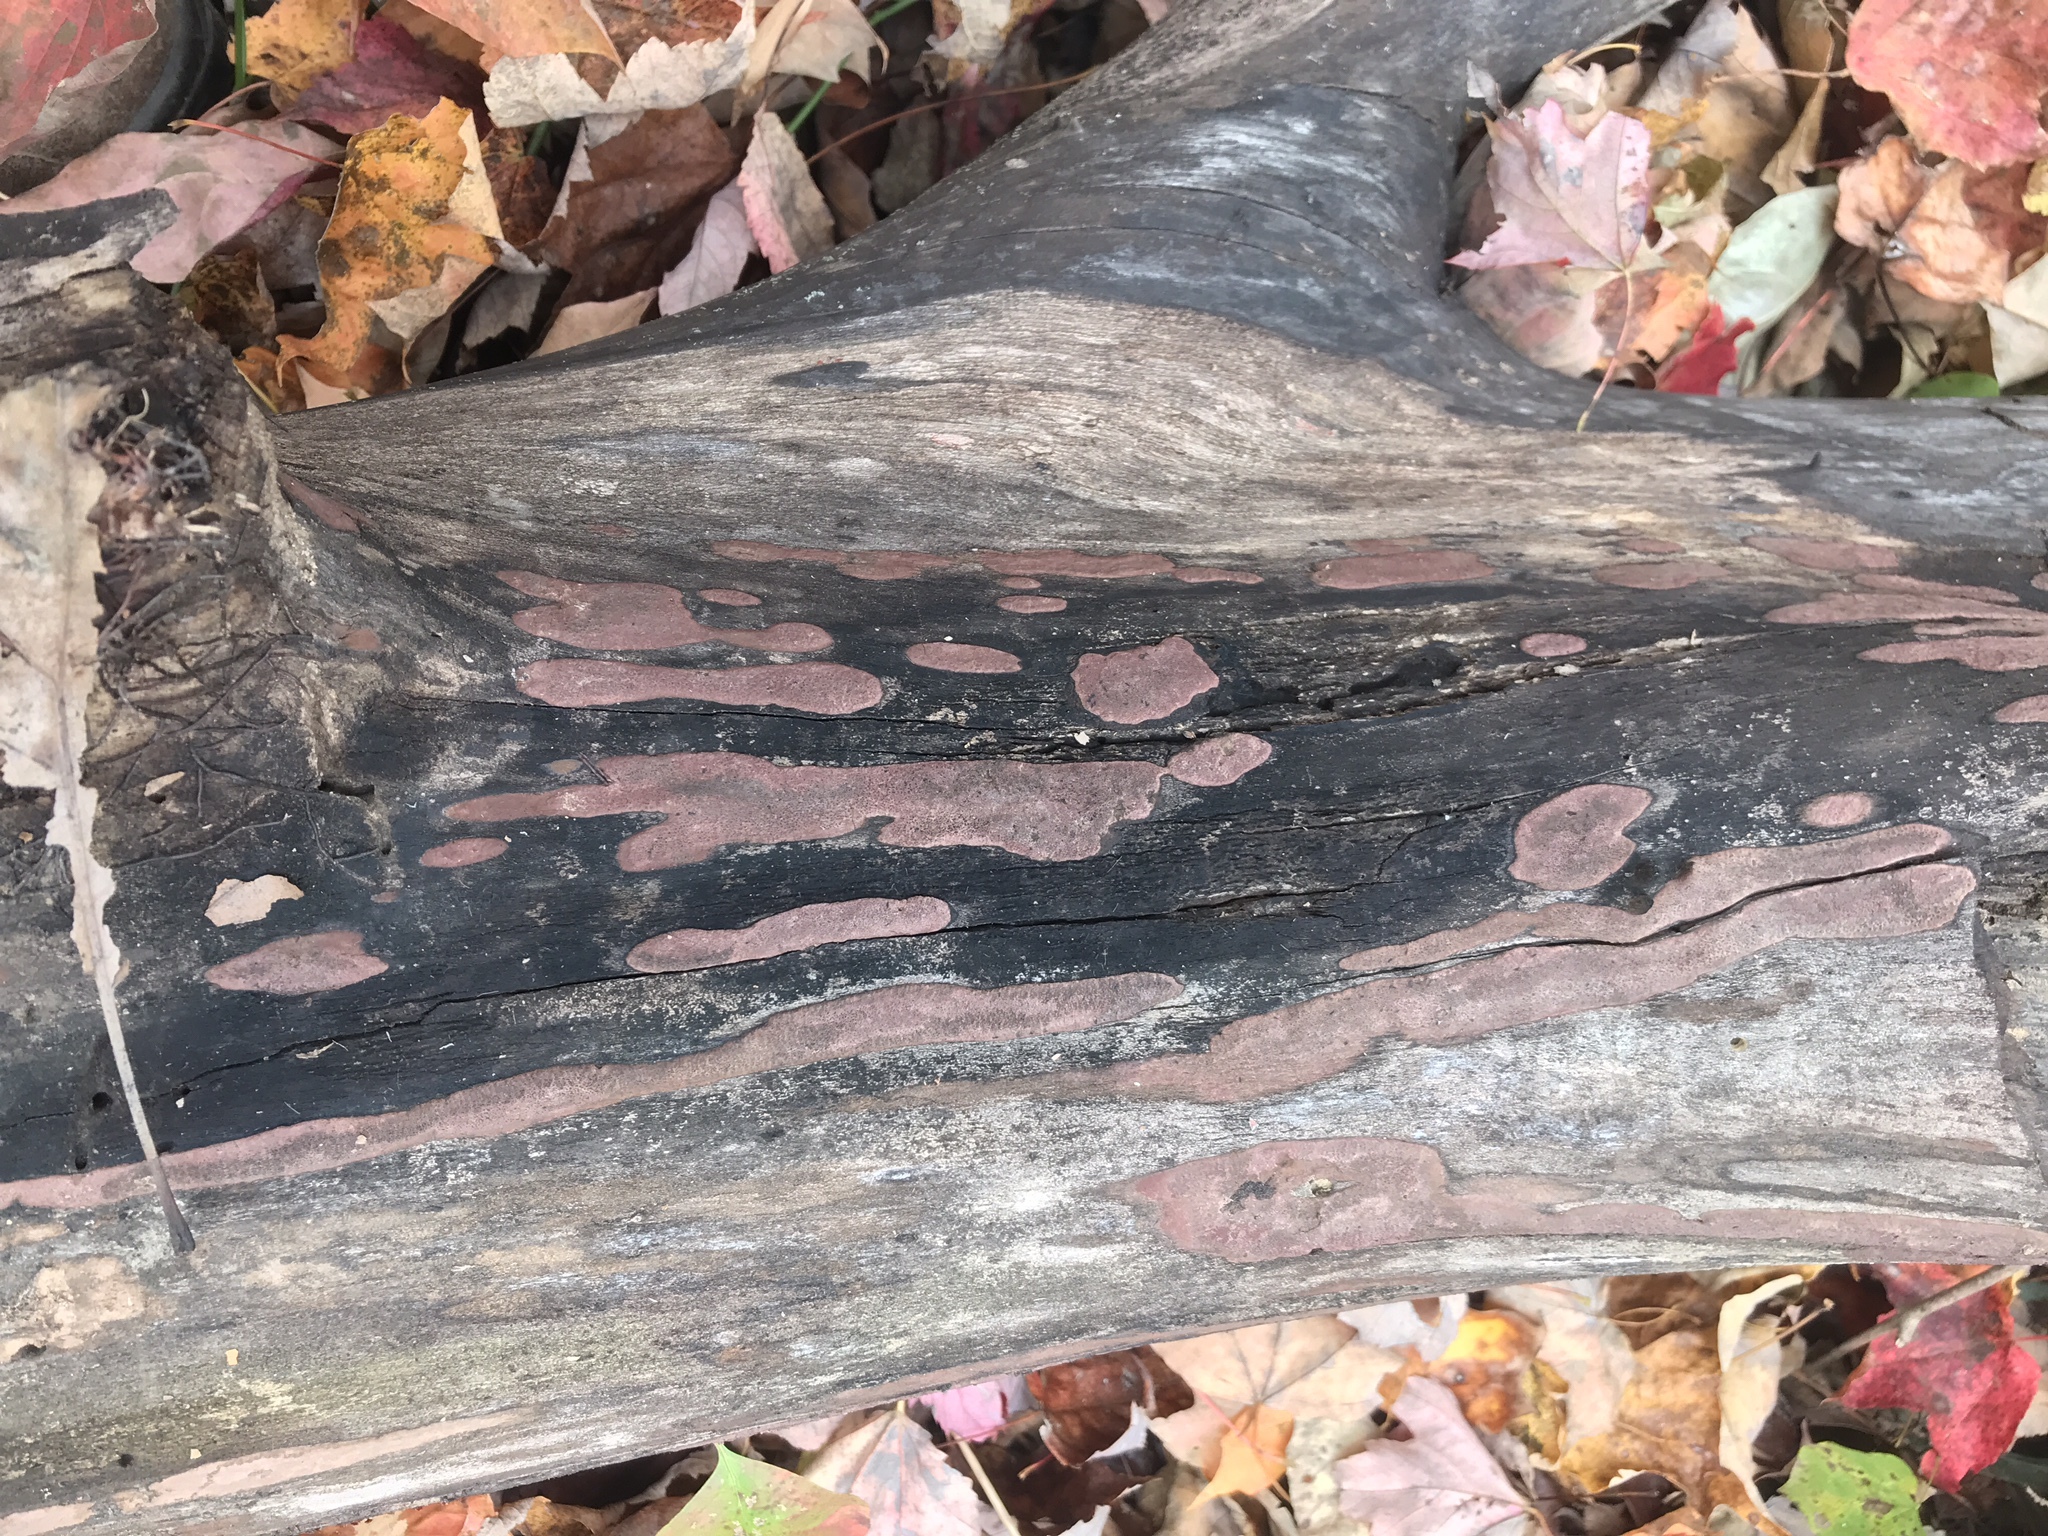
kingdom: Fungi
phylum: Ascomycota
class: Sordariomycetes
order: Xylariales
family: Hypoxylaceae
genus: Hypoxylon
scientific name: Hypoxylon rubiginosum
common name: Rusty woodwart
